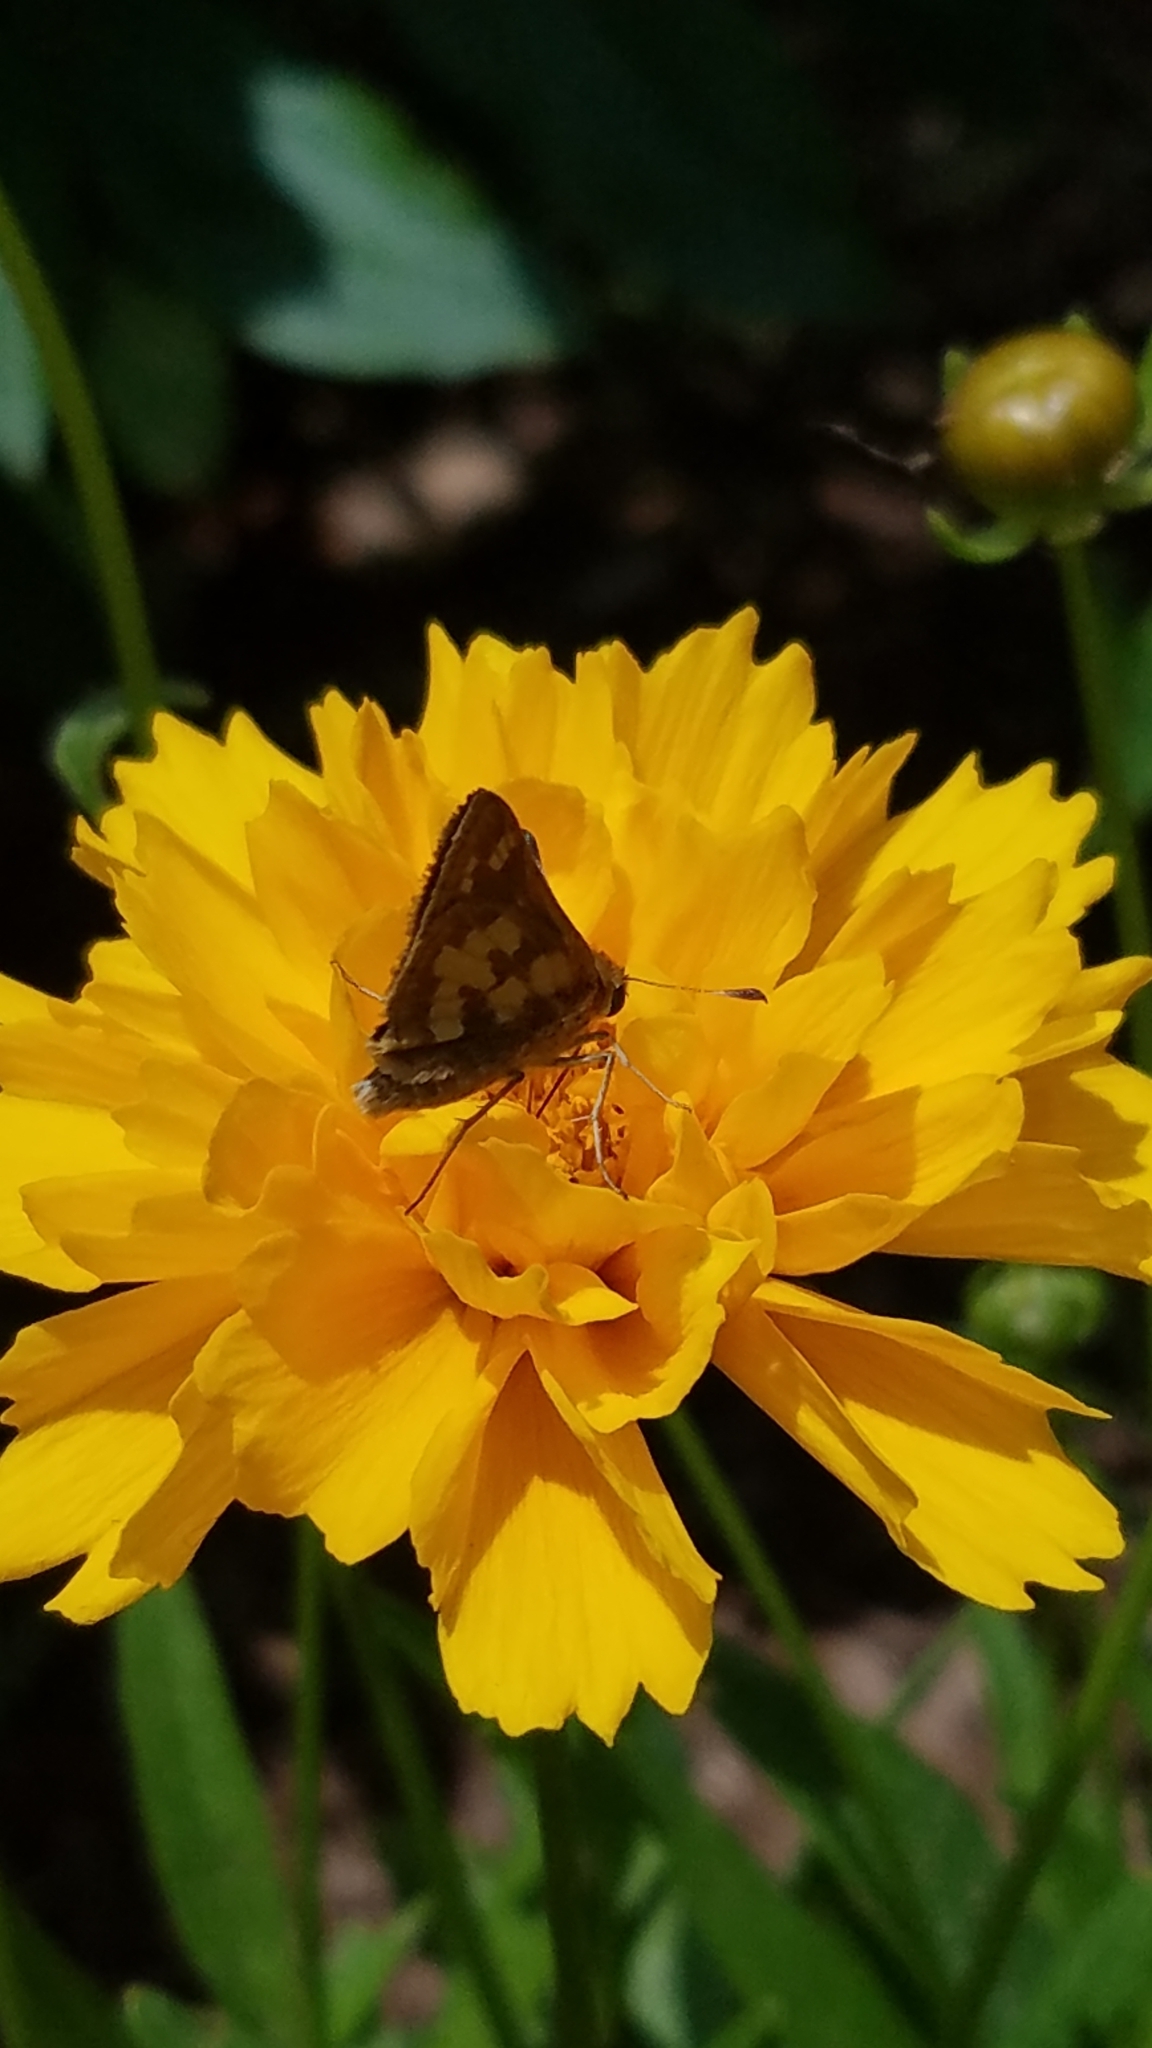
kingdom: Animalia
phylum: Arthropoda
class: Insecta
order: Lepidoptera
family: Hesperiidae
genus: Polites
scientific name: Polites coras
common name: Peck's skipper
